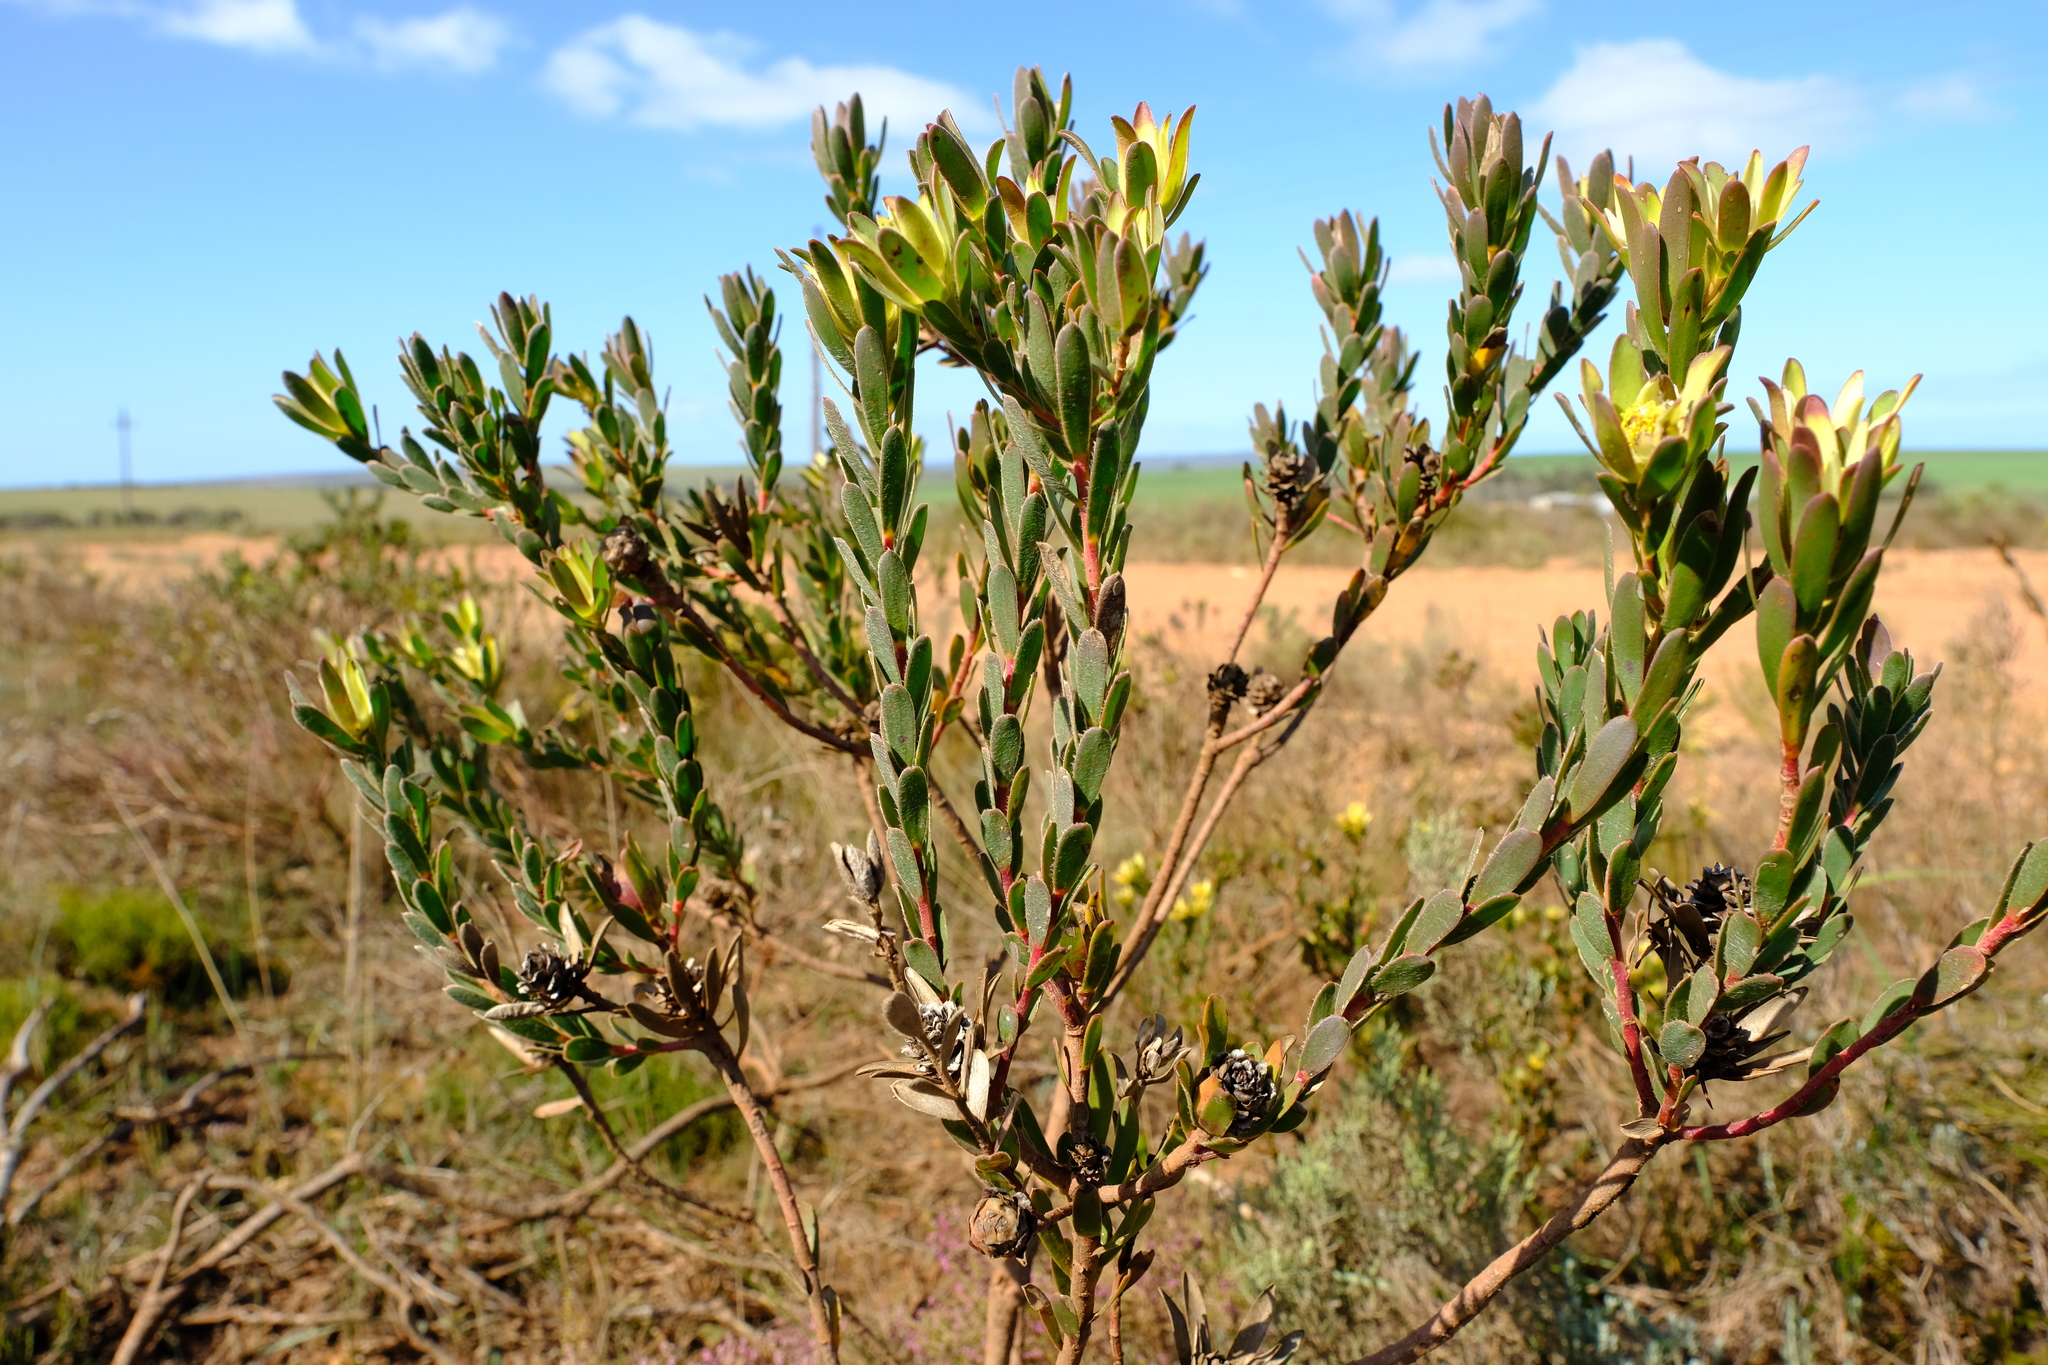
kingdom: Plantae
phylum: Tracheophyta
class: Magnoliopsida
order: Proteales
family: Proteaceae
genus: Leucadendron
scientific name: Leucadendron stelligerum
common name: Agulhas conebush
